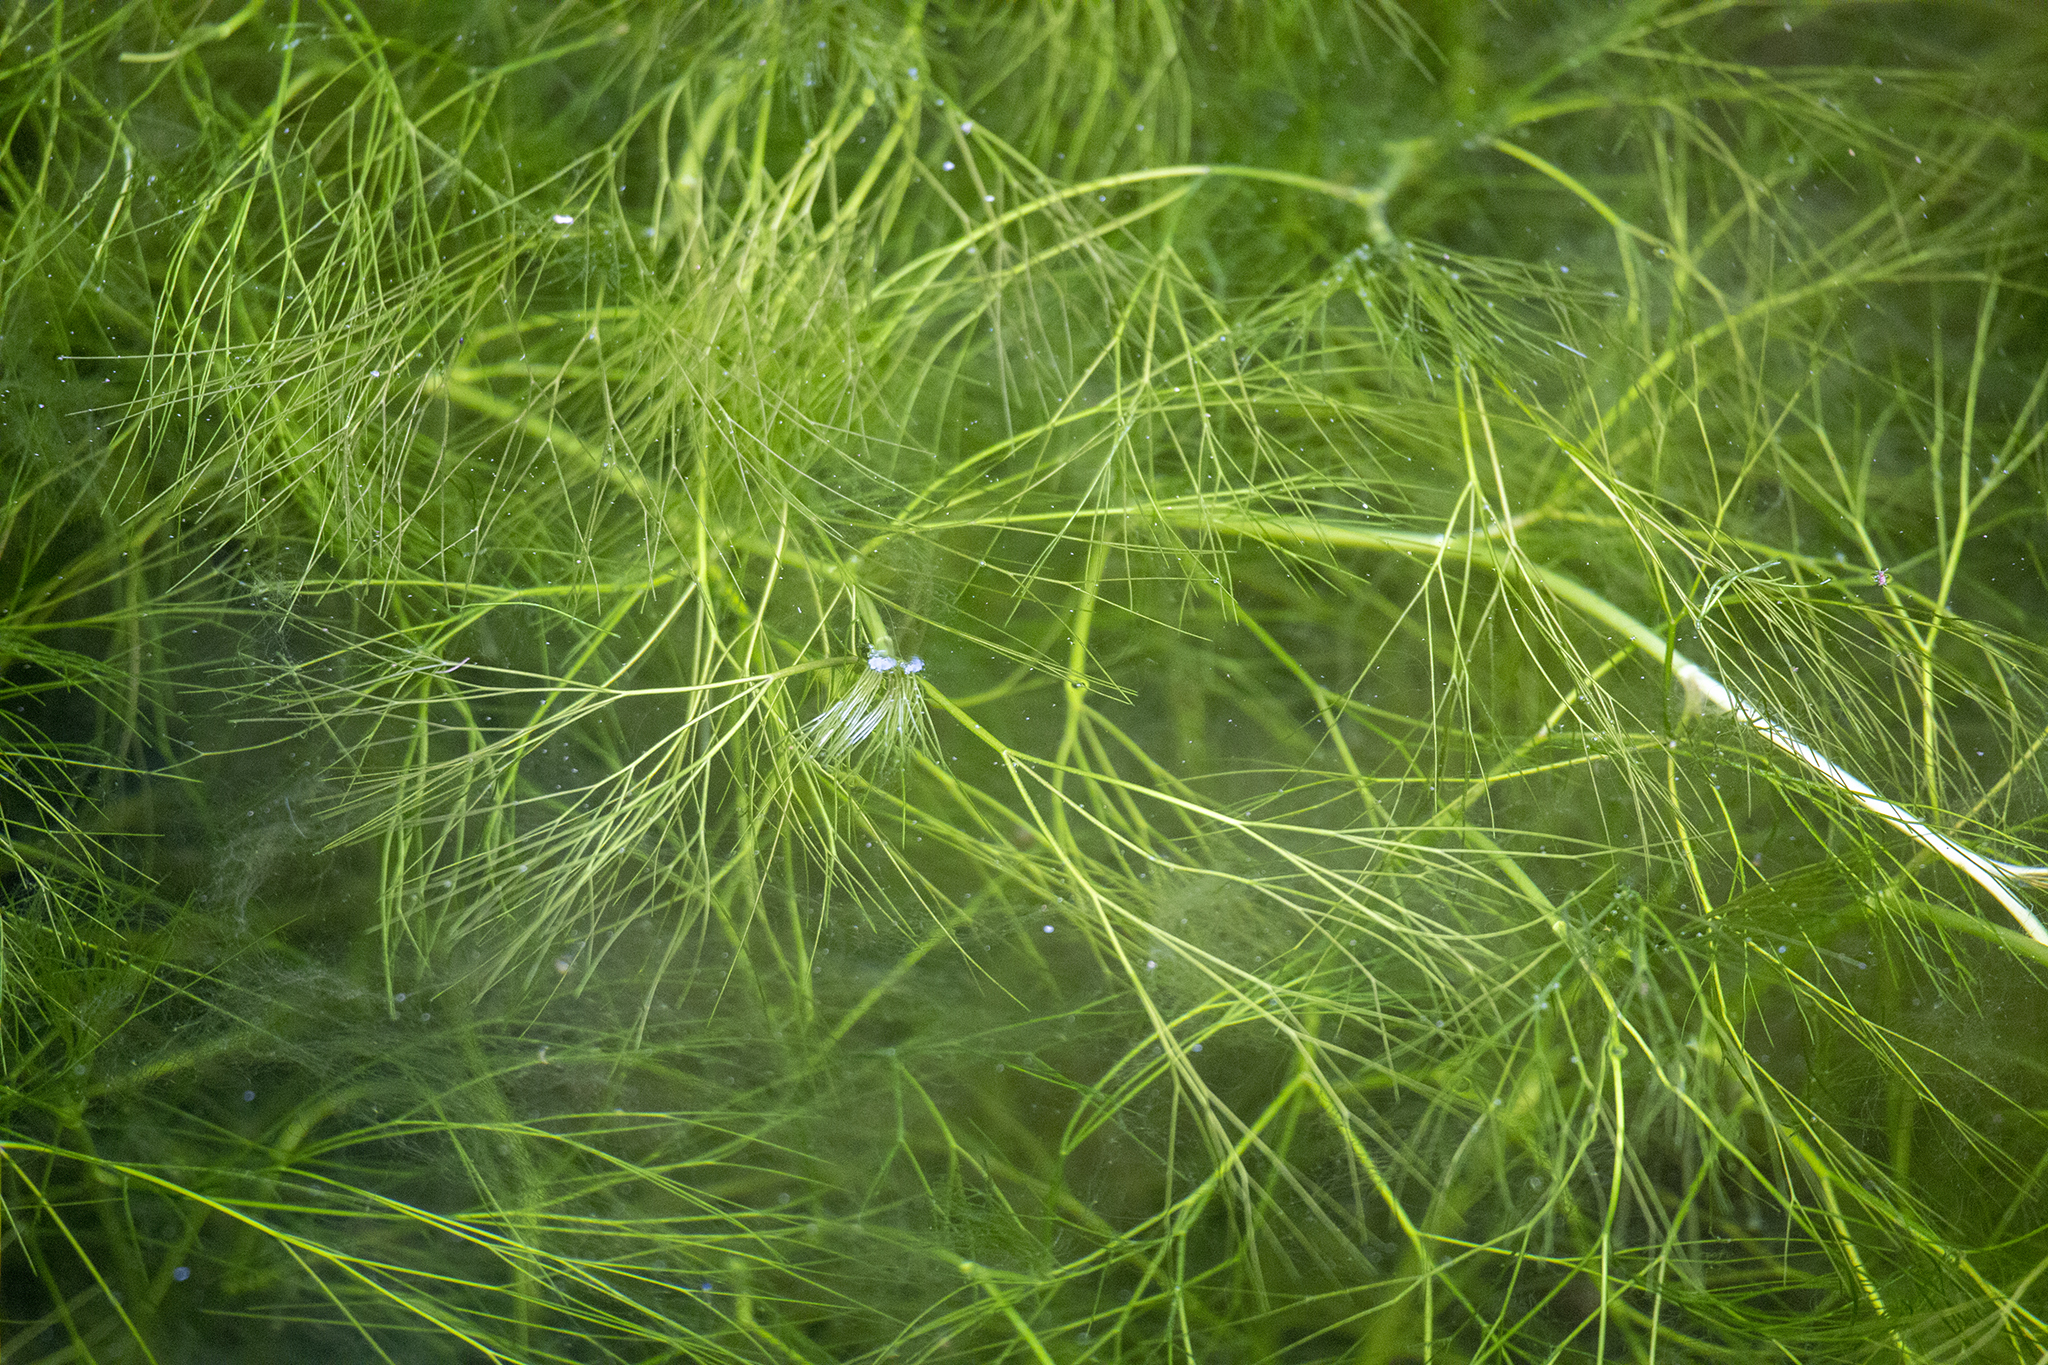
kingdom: Plantae
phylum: Tracheophyta
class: Magnoliopsida
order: Ranunculales
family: Ranunculaceae
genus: Ranunculus
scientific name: Ranunculus trichophyllus
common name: Thread-leaved water-crowfoot
